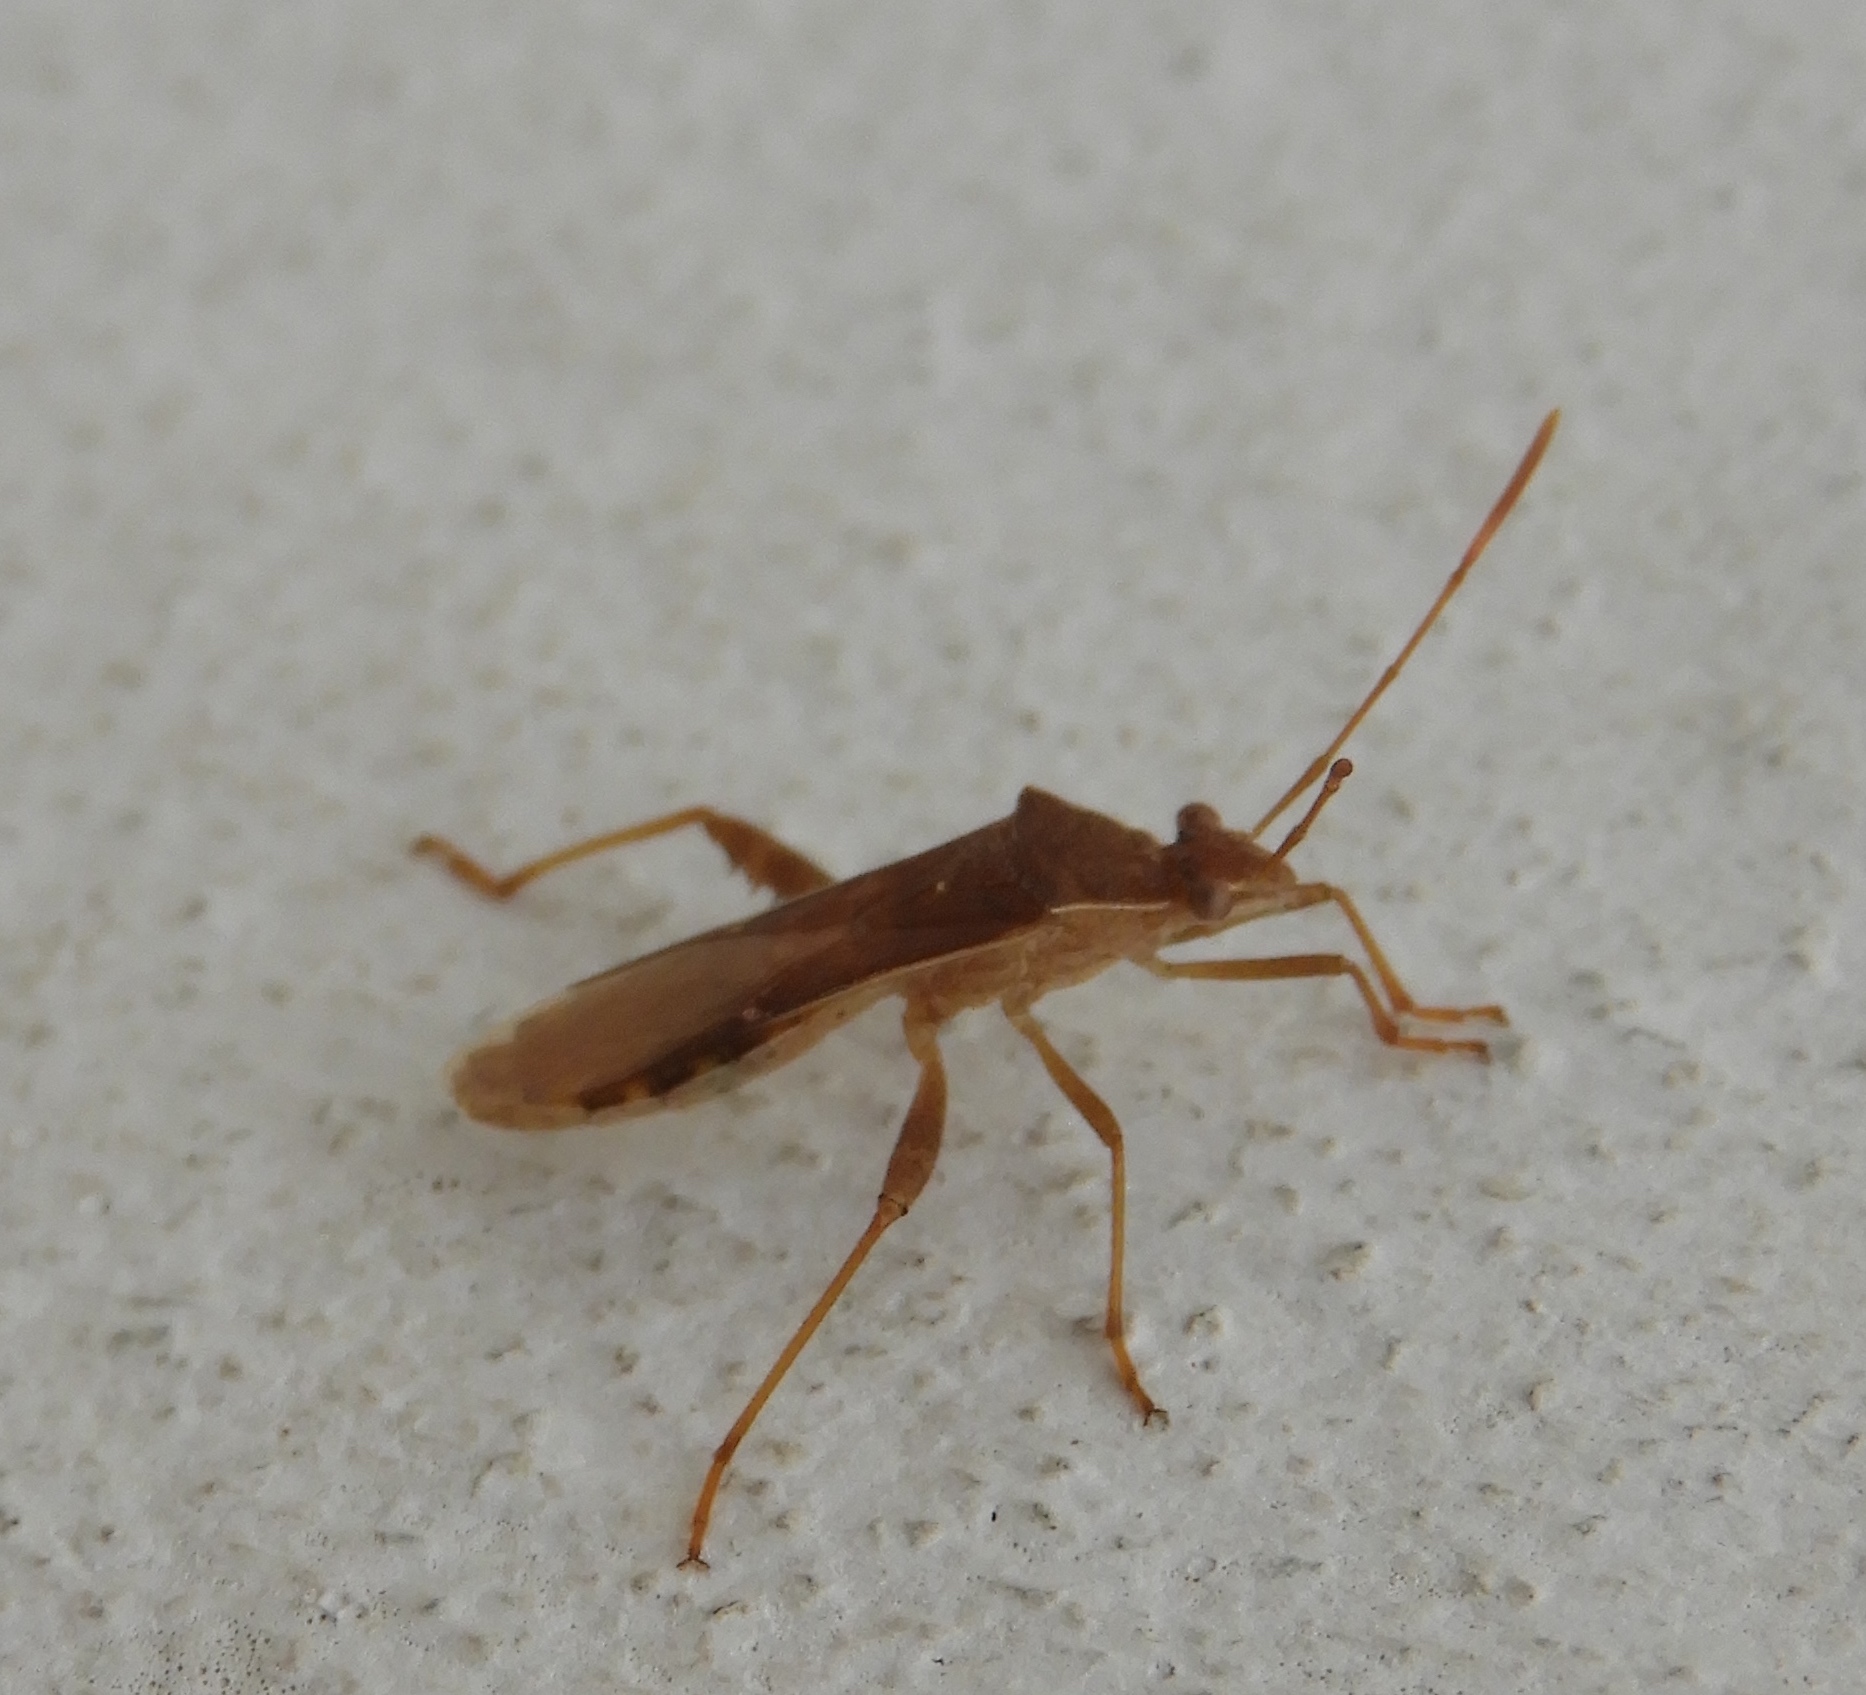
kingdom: Animalia
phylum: Arthropoda
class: Insecta
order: Hemiptera
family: Alydidae
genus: Burtinus
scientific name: Burtinus notatipennis
